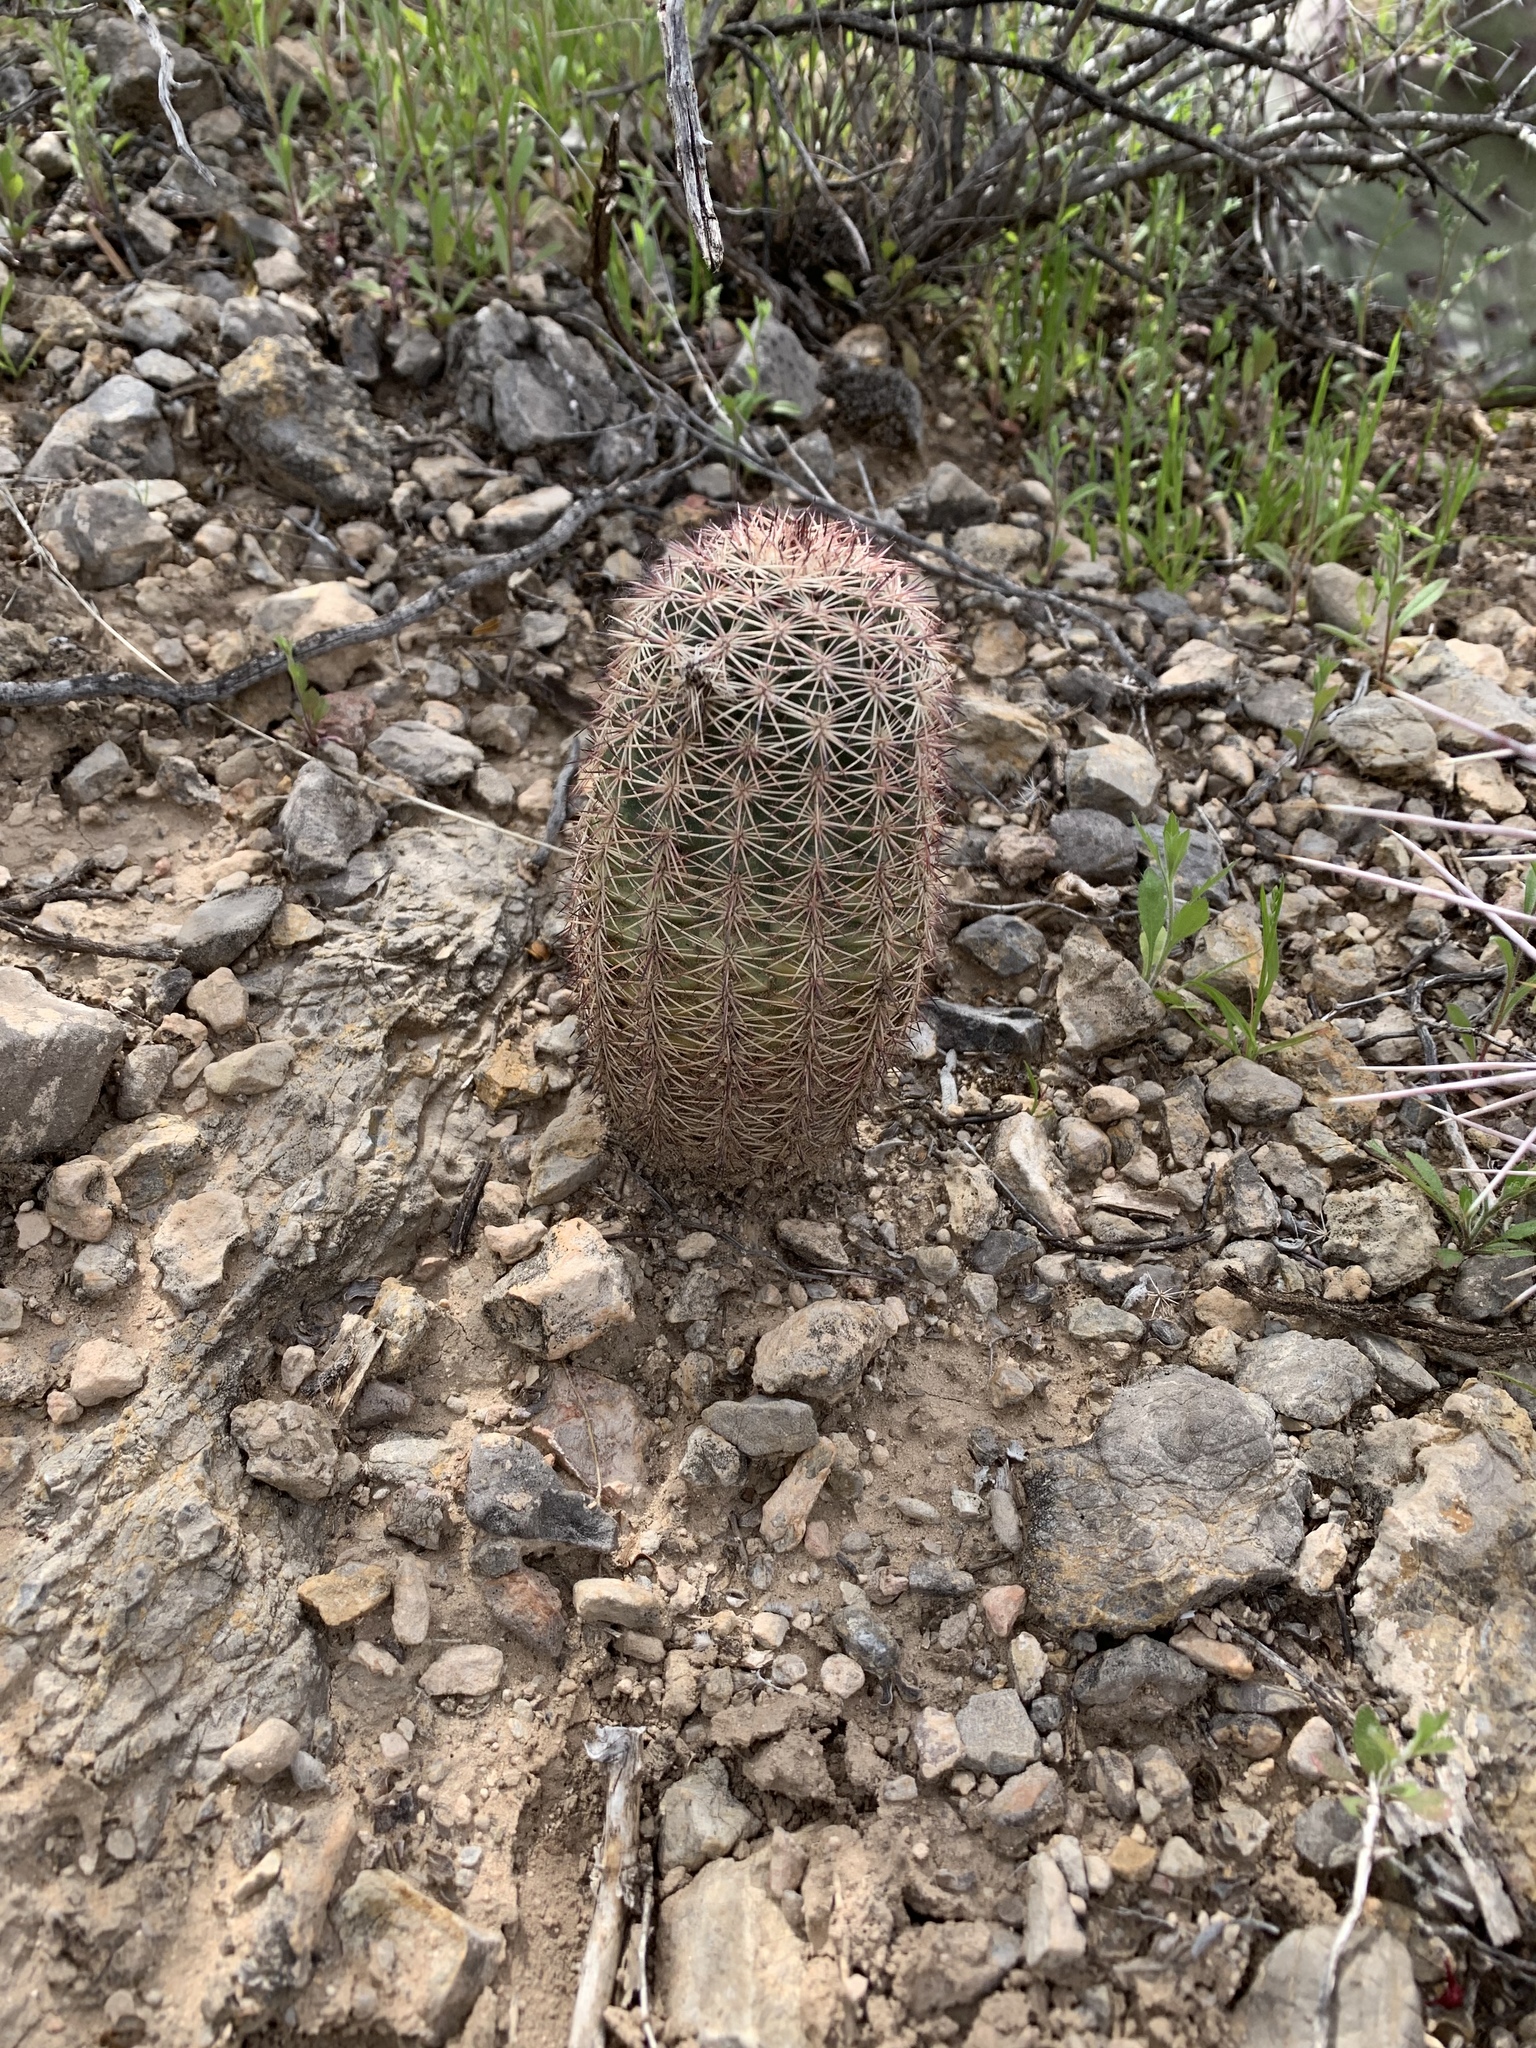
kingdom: Plantae
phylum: Tracheophyta
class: Magnoliopsida
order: Caryophyllales
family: Cactaceae
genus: Echinocereus
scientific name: Echinocereus dasyacanthus
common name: Spiny hedgehog cactus
